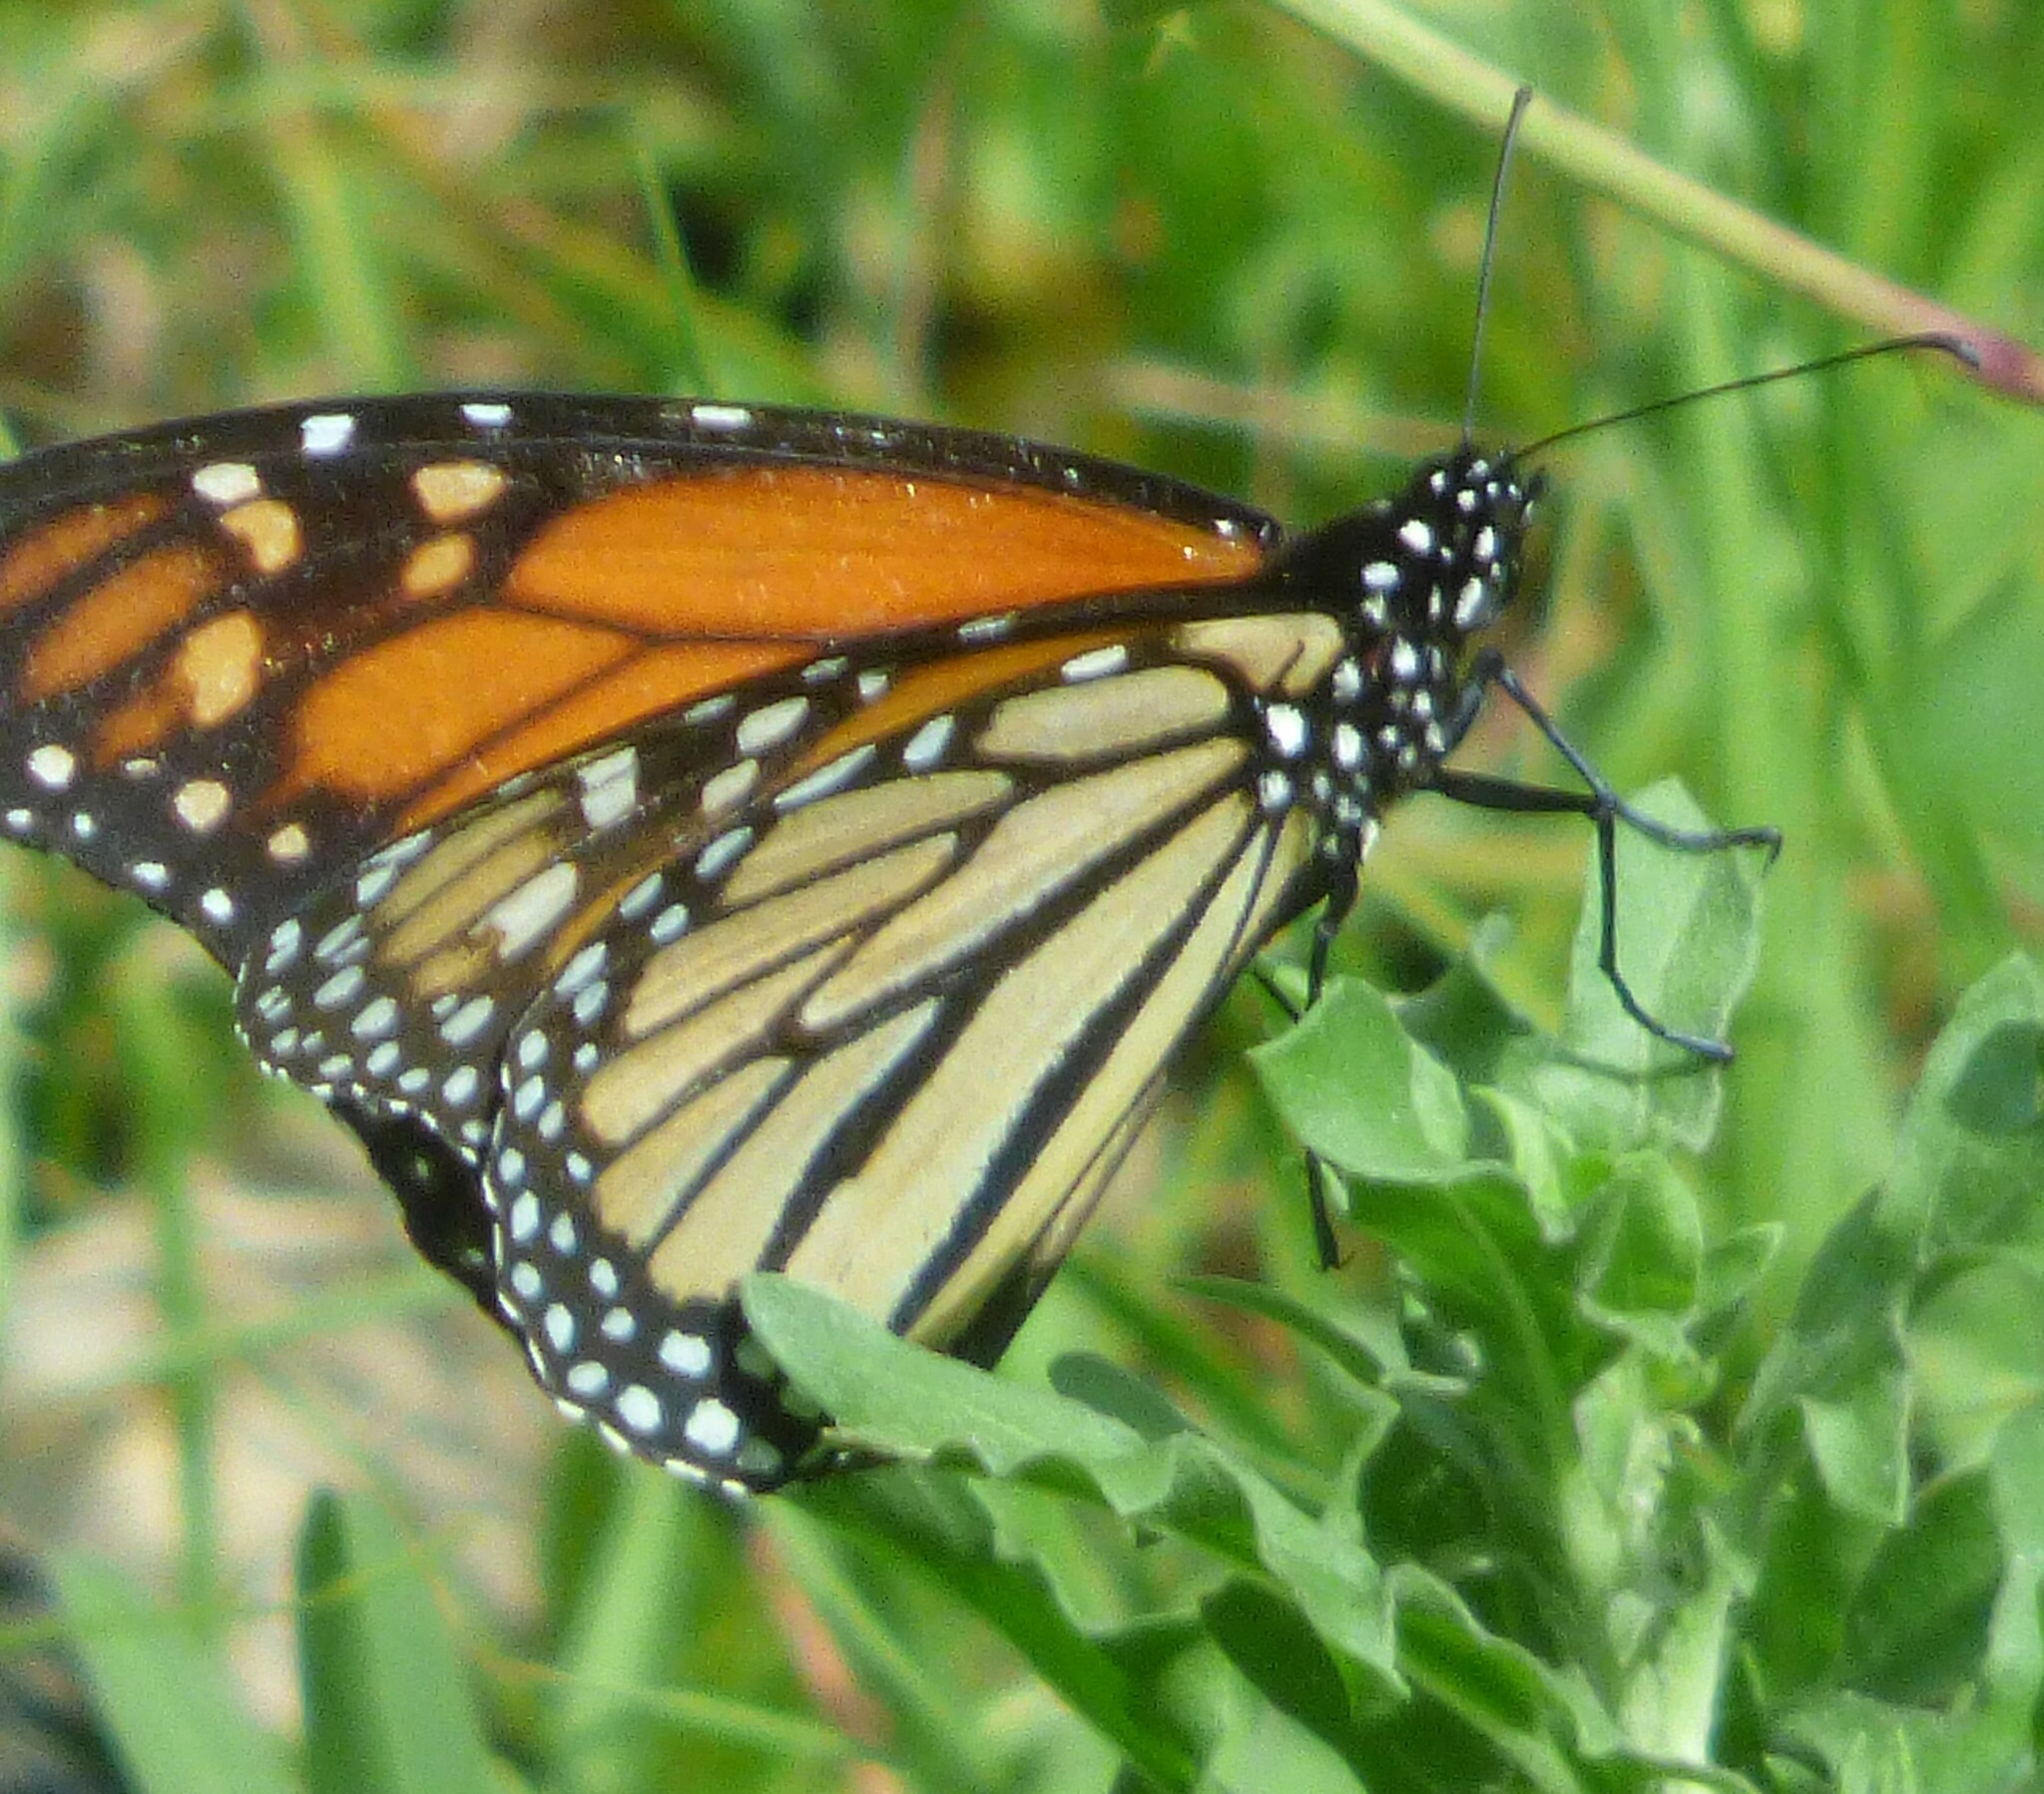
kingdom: Animalia
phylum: Arthropoda
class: Insecta
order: Lepidoptera
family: Nymphalidae
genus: Danaus
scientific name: Danaus plexippus
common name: Monarch
